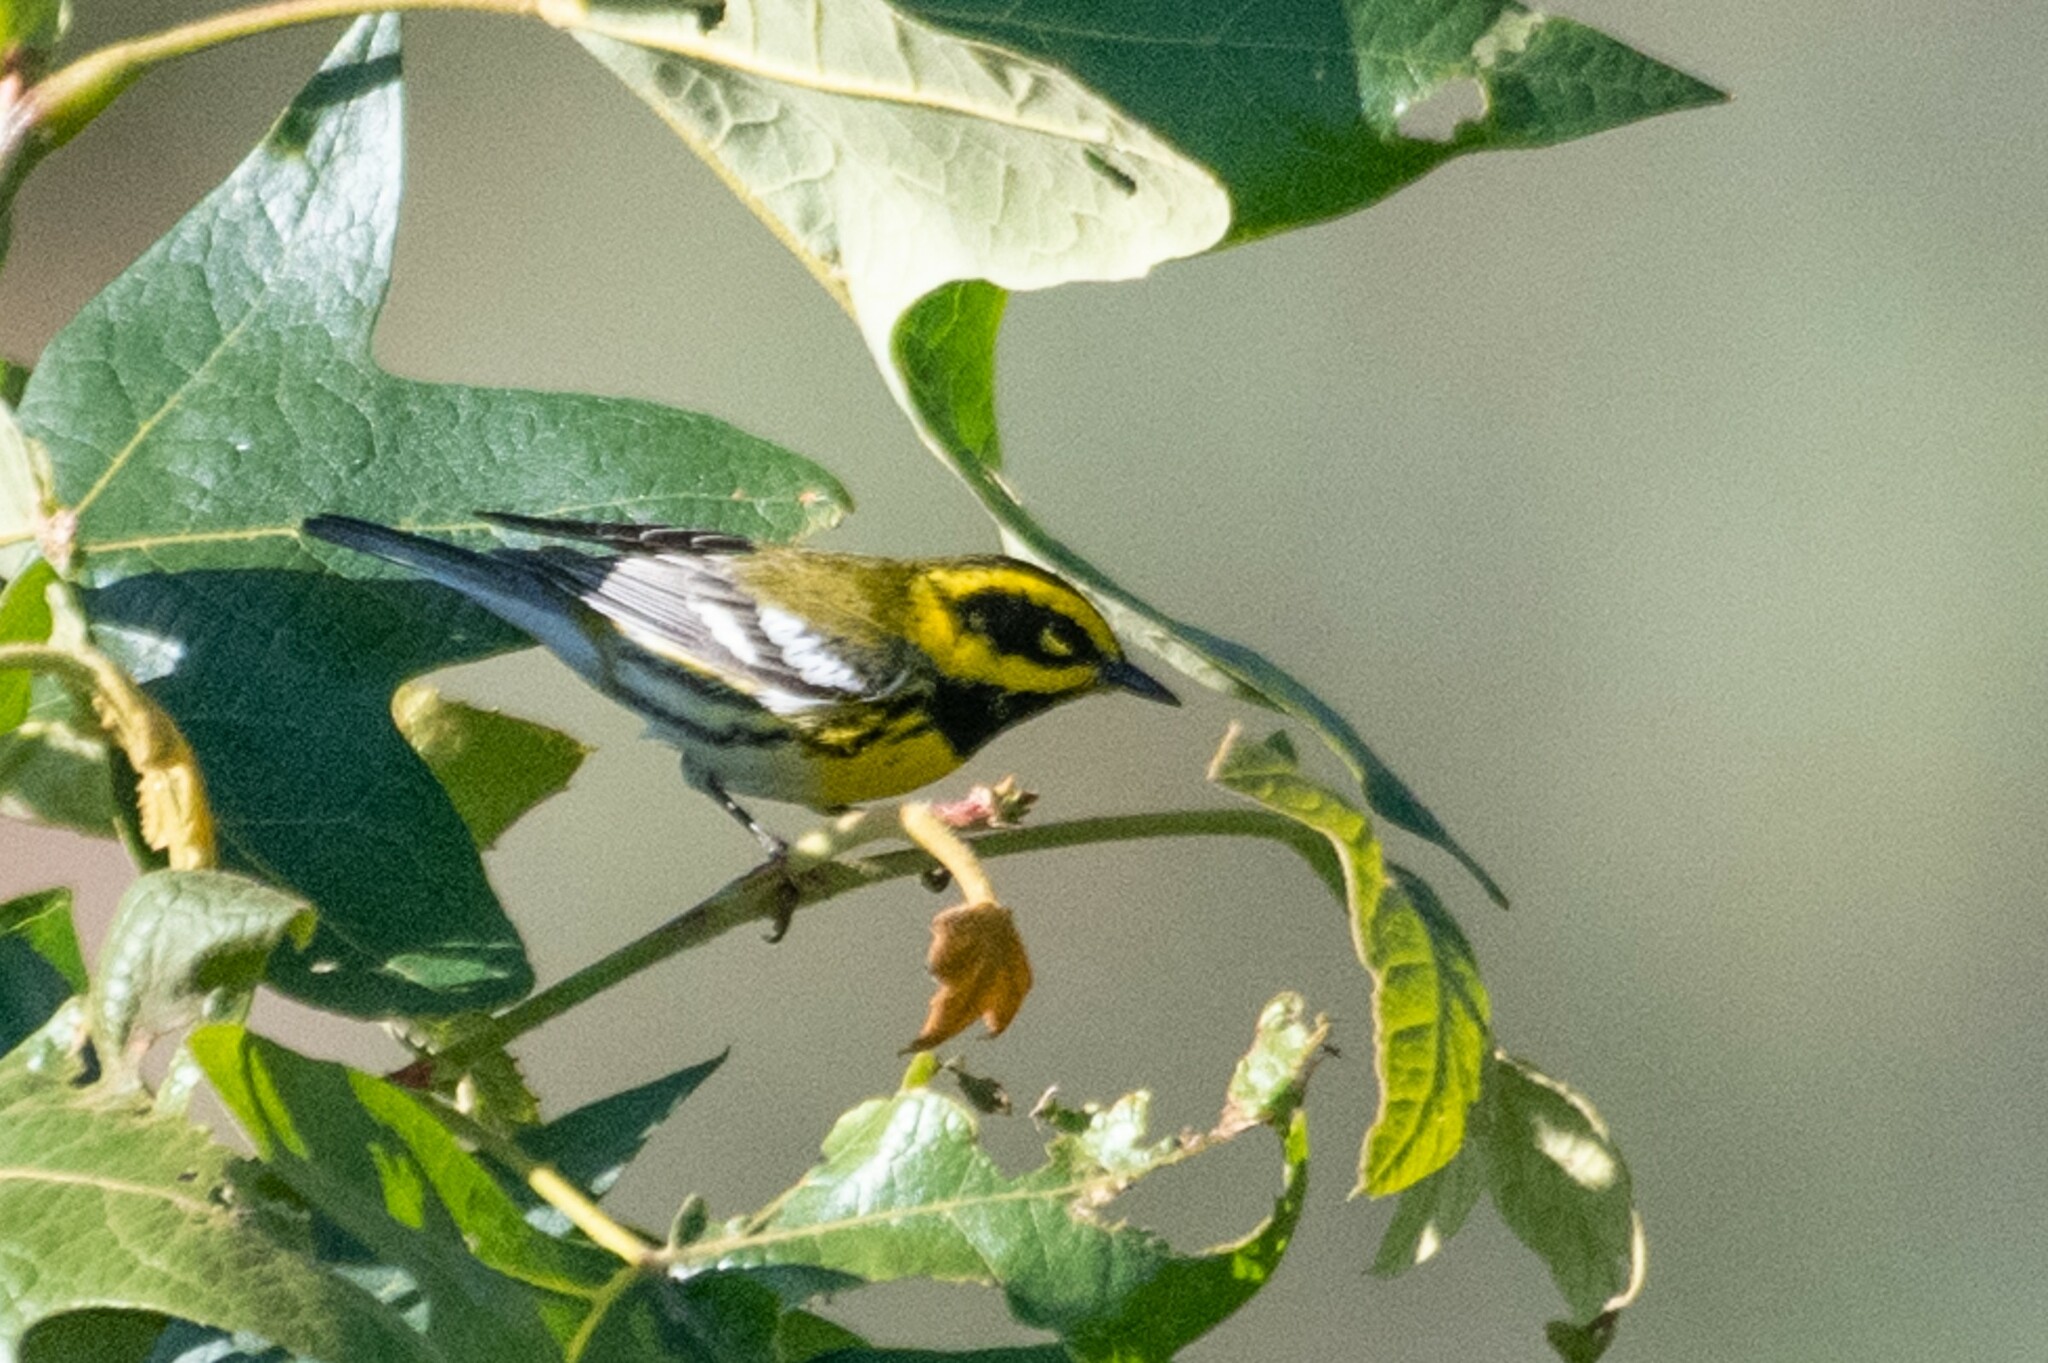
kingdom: Animalia
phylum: Chordata
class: Aves
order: Passeriformes
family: Parulidae
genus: Setophaga
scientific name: Setophaga townsendi
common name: Townsend's warbler
